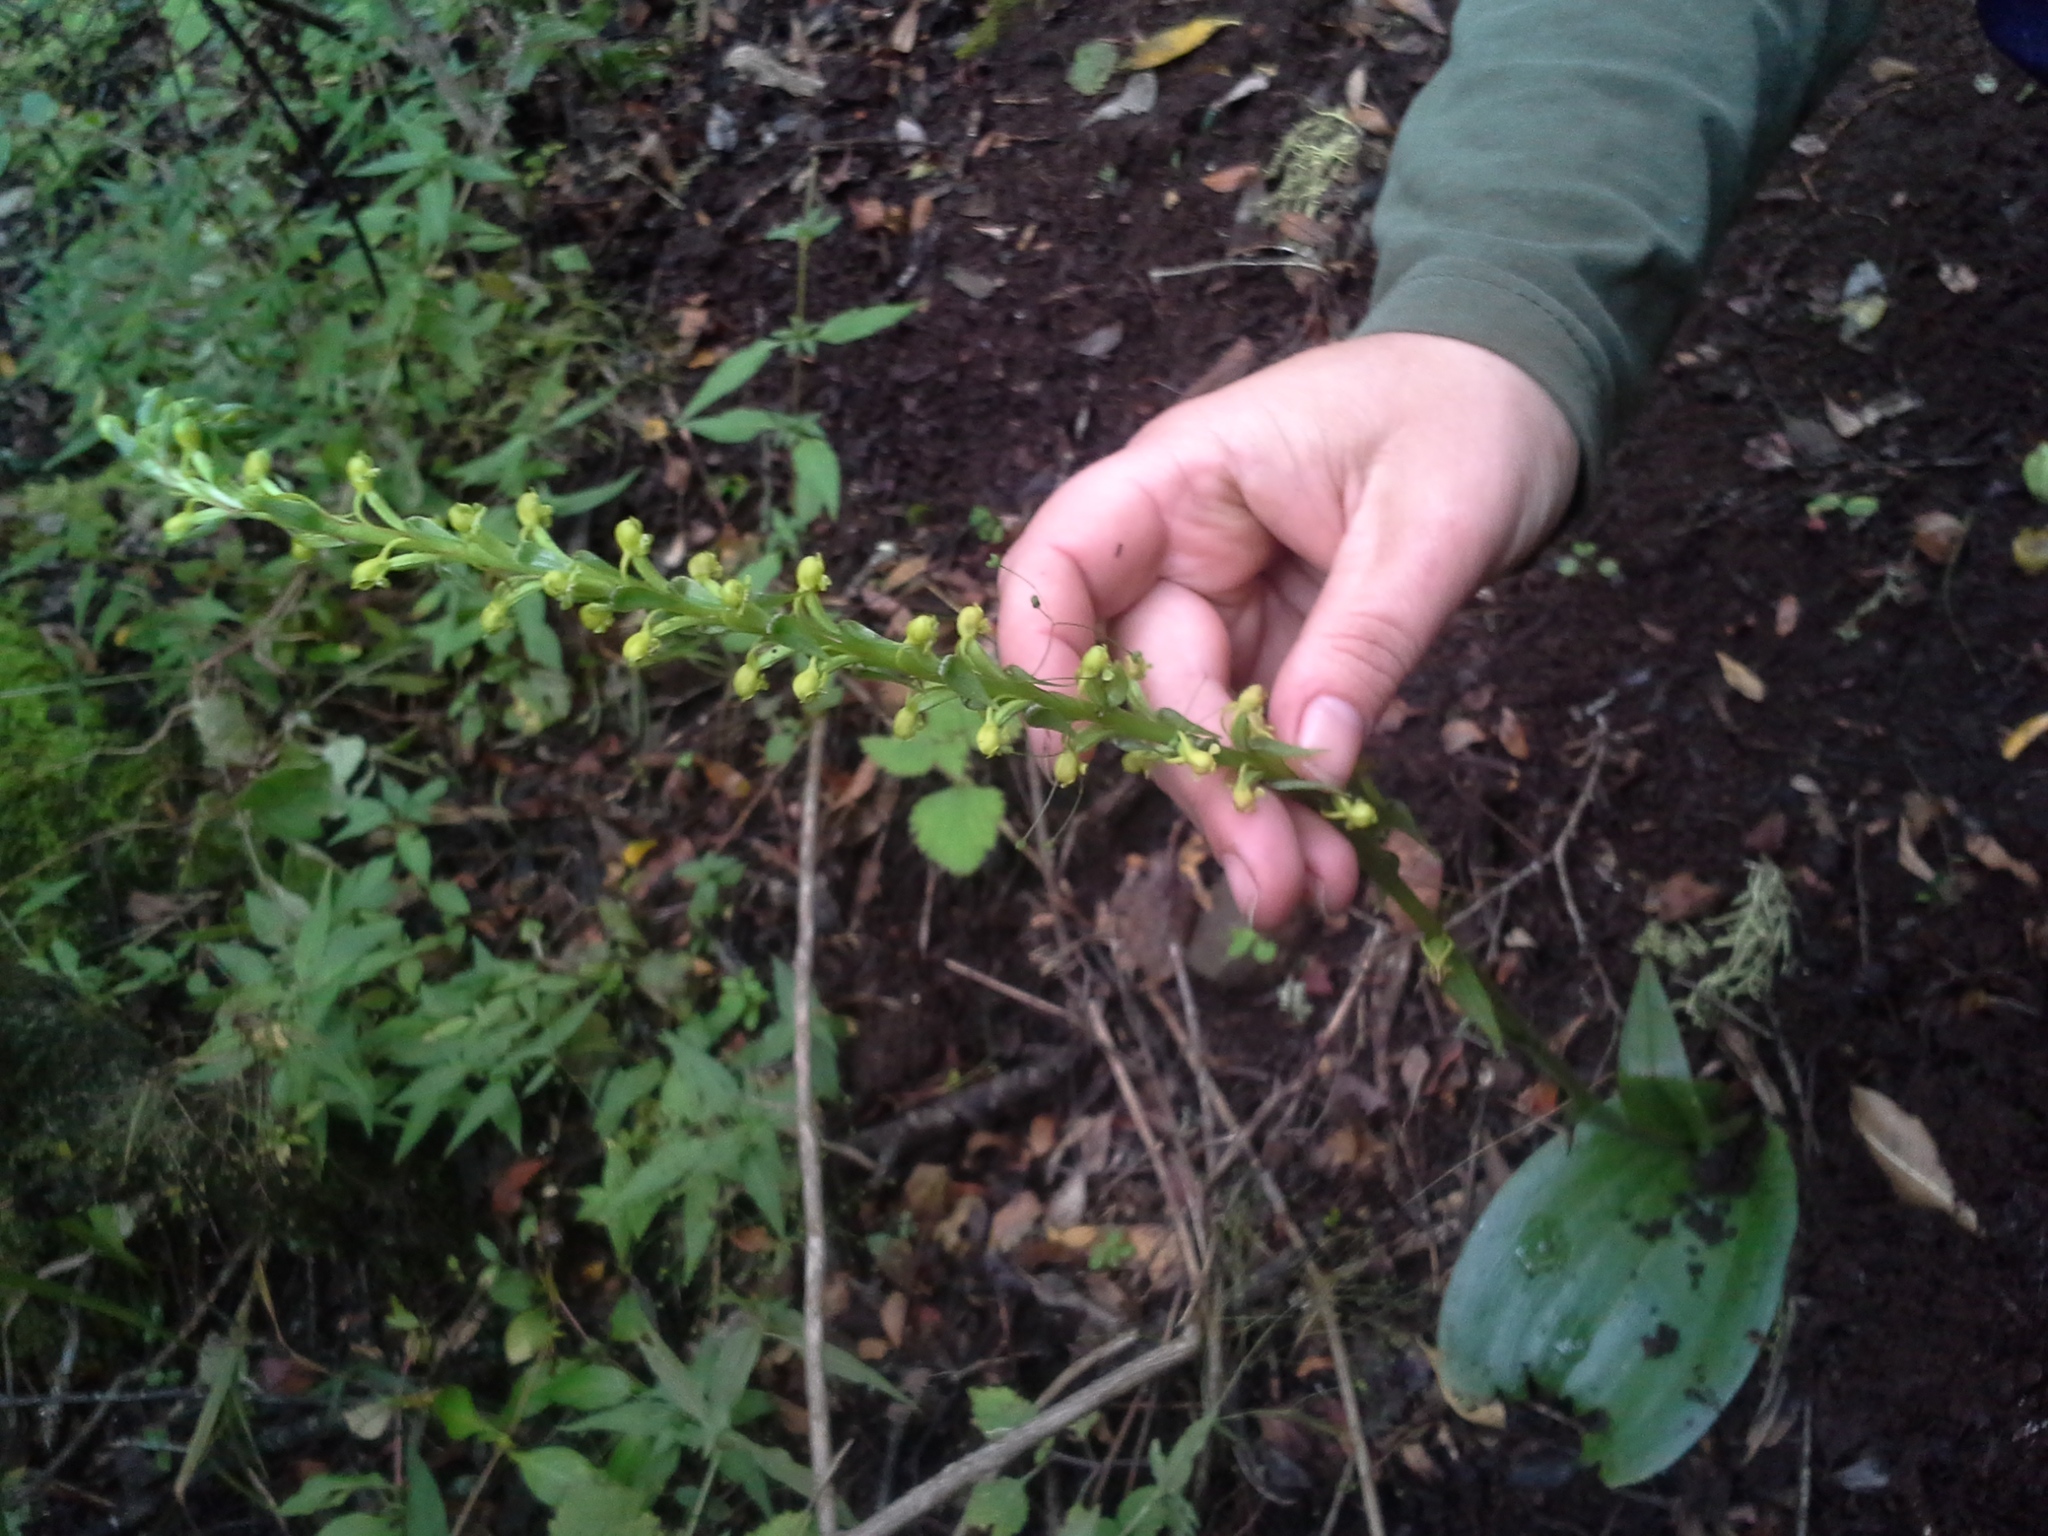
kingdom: Plantae
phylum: Tracheophyta
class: Liliopsida
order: Asparagales
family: Orchidaceae
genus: Satyrium
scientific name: Satyrium parviflorum
